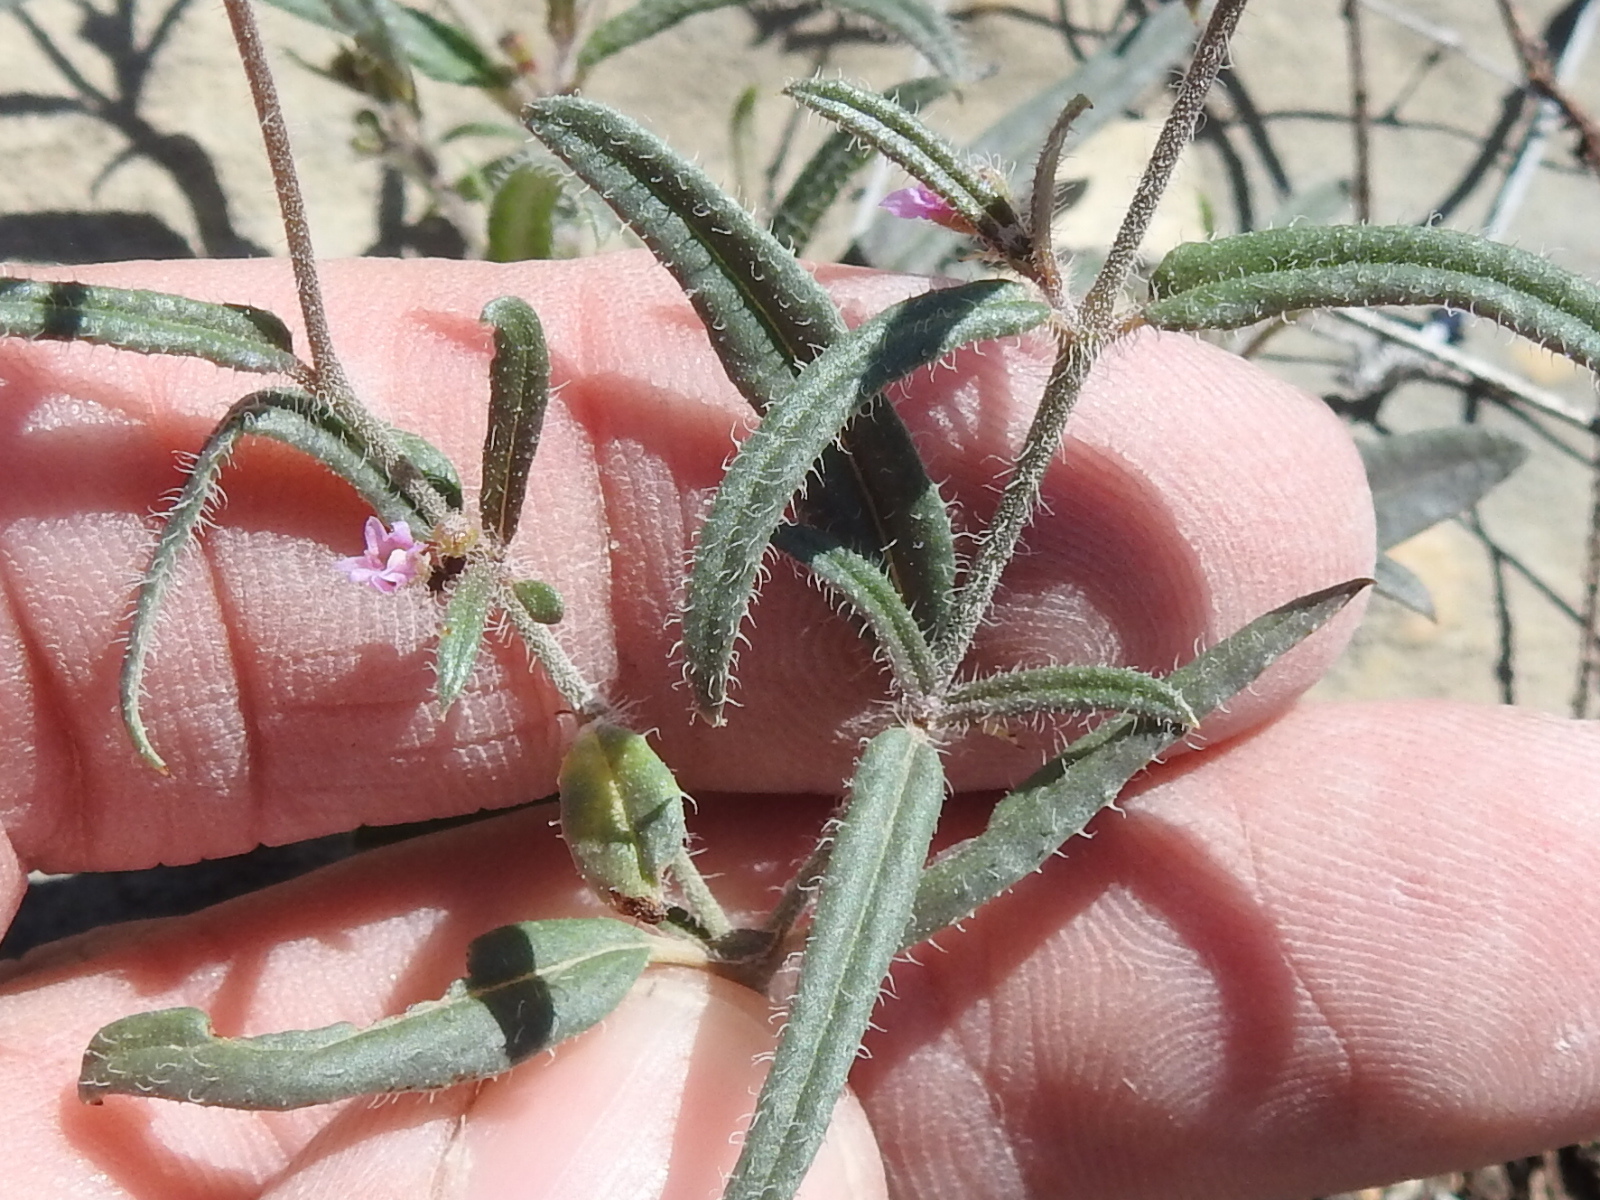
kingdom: Plantae
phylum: Tracheophyta
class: Magnoliopsida
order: Caryophyllales
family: Nyctaginaceae
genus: Boerhavia
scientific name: Boerhavia linearifolia
